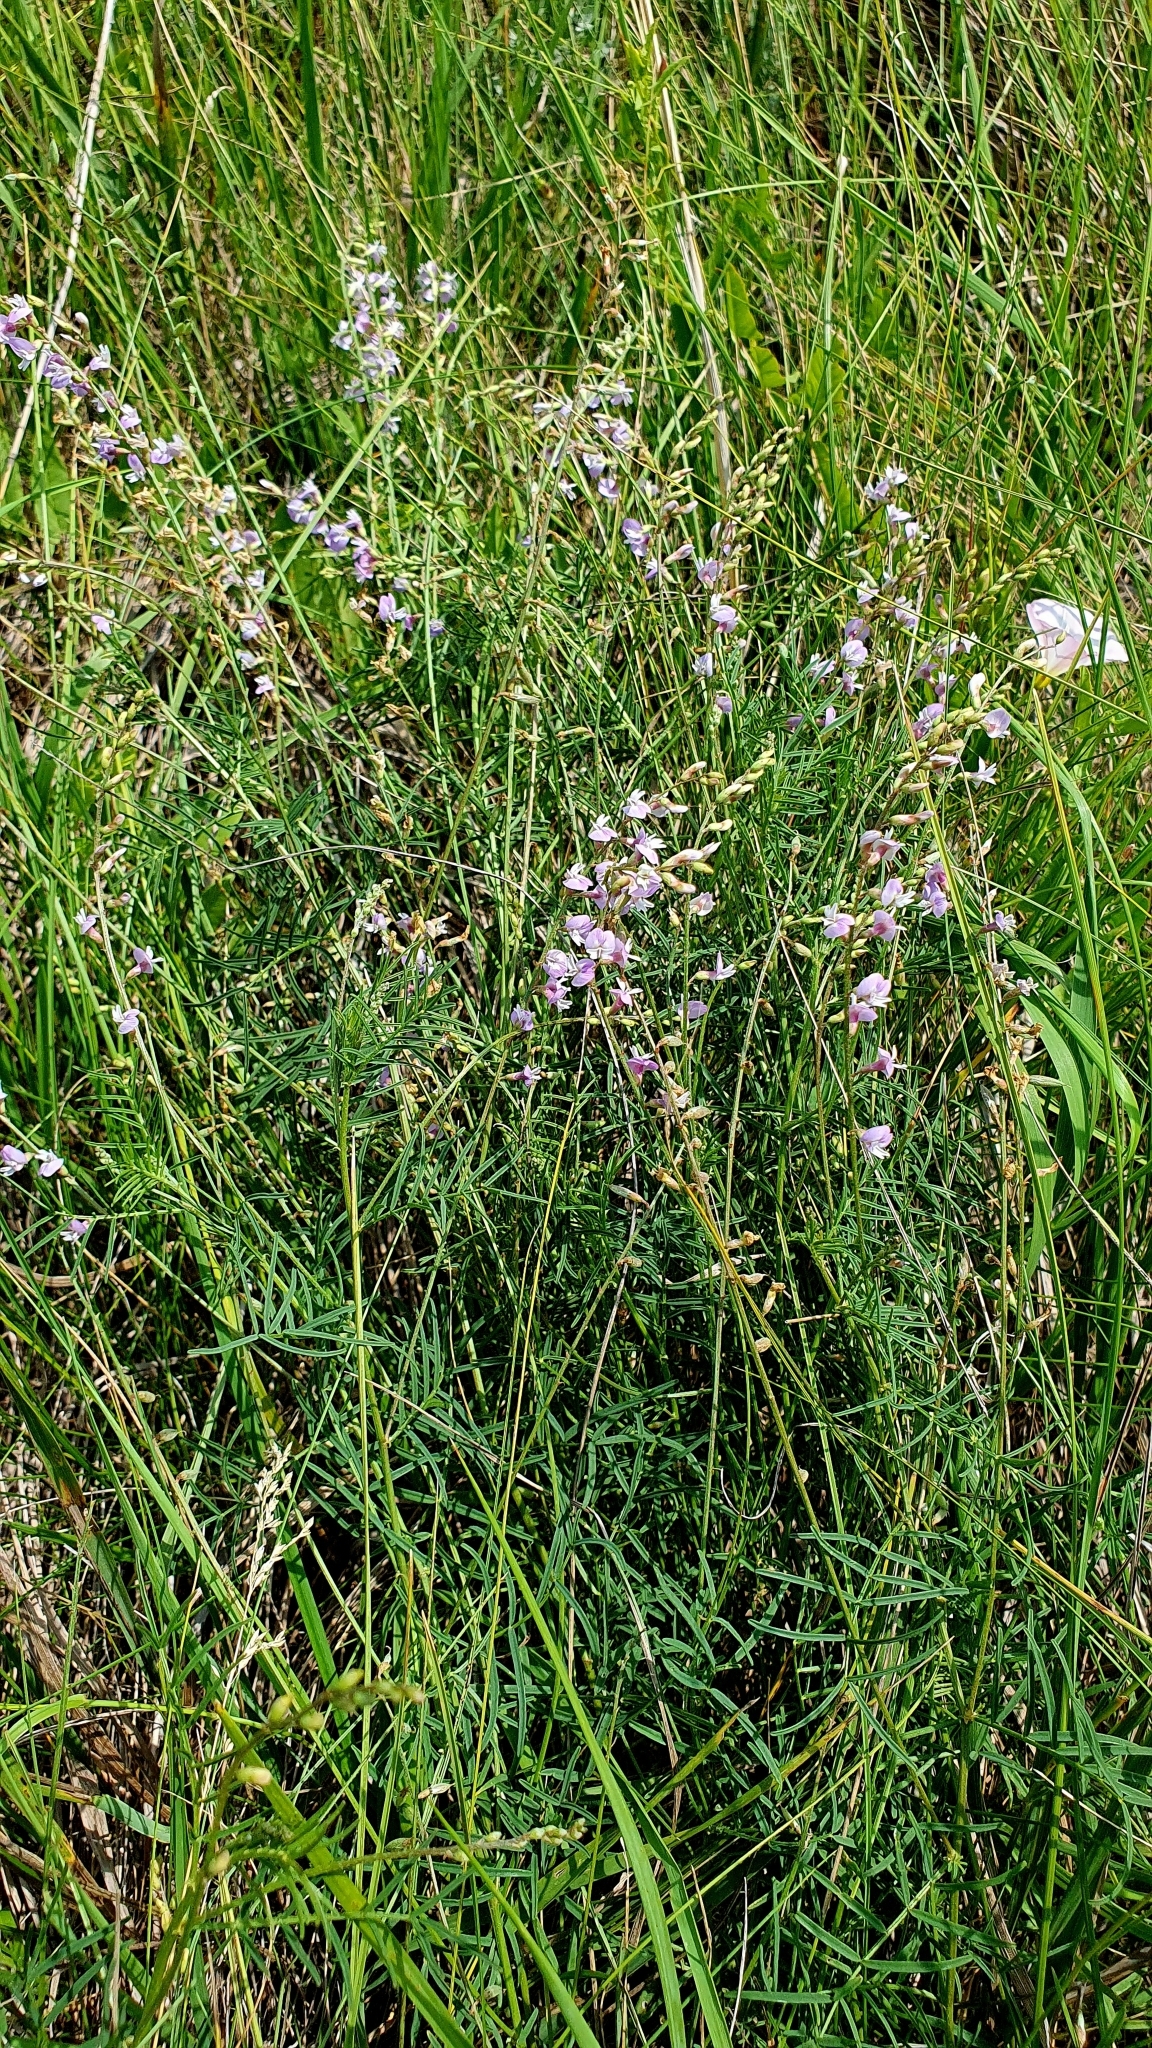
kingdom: Plantae
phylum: Tracheophyta
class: Magnoliopsida
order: Fabales
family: Fabaceae
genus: Astragalus
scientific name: Astragalus austriacus
